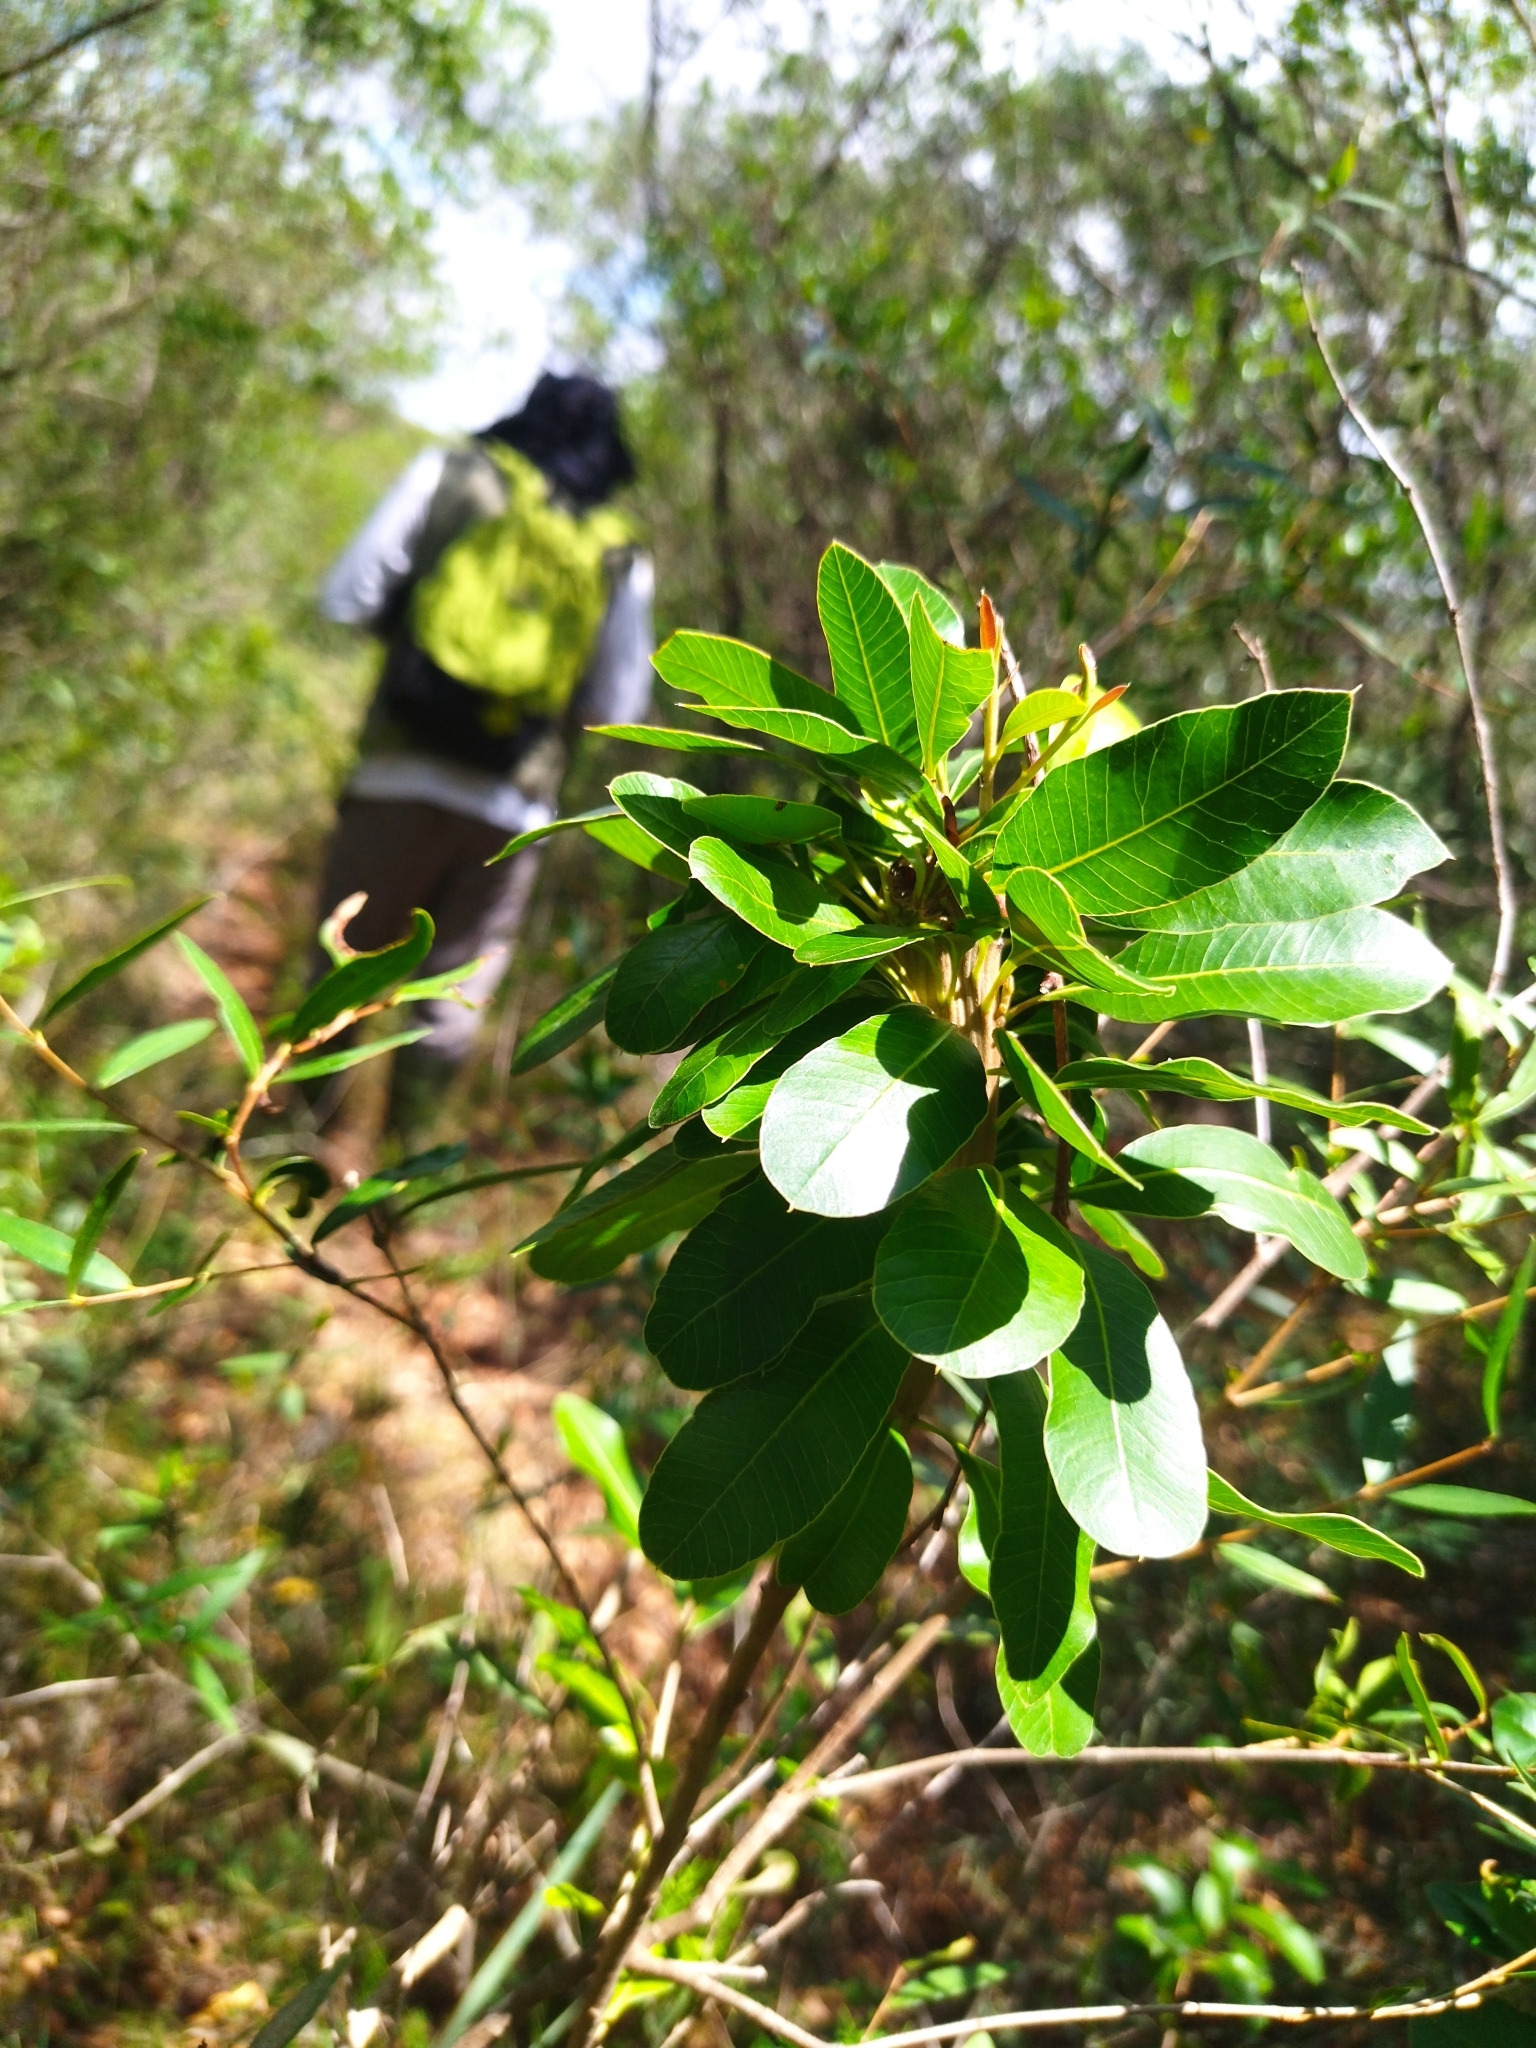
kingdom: Plantae
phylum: Tracheophyta
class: Magnoliopsida
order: Sapindales
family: Anacardiaceae
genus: Lithraea
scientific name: Lithraea brasiliensis
